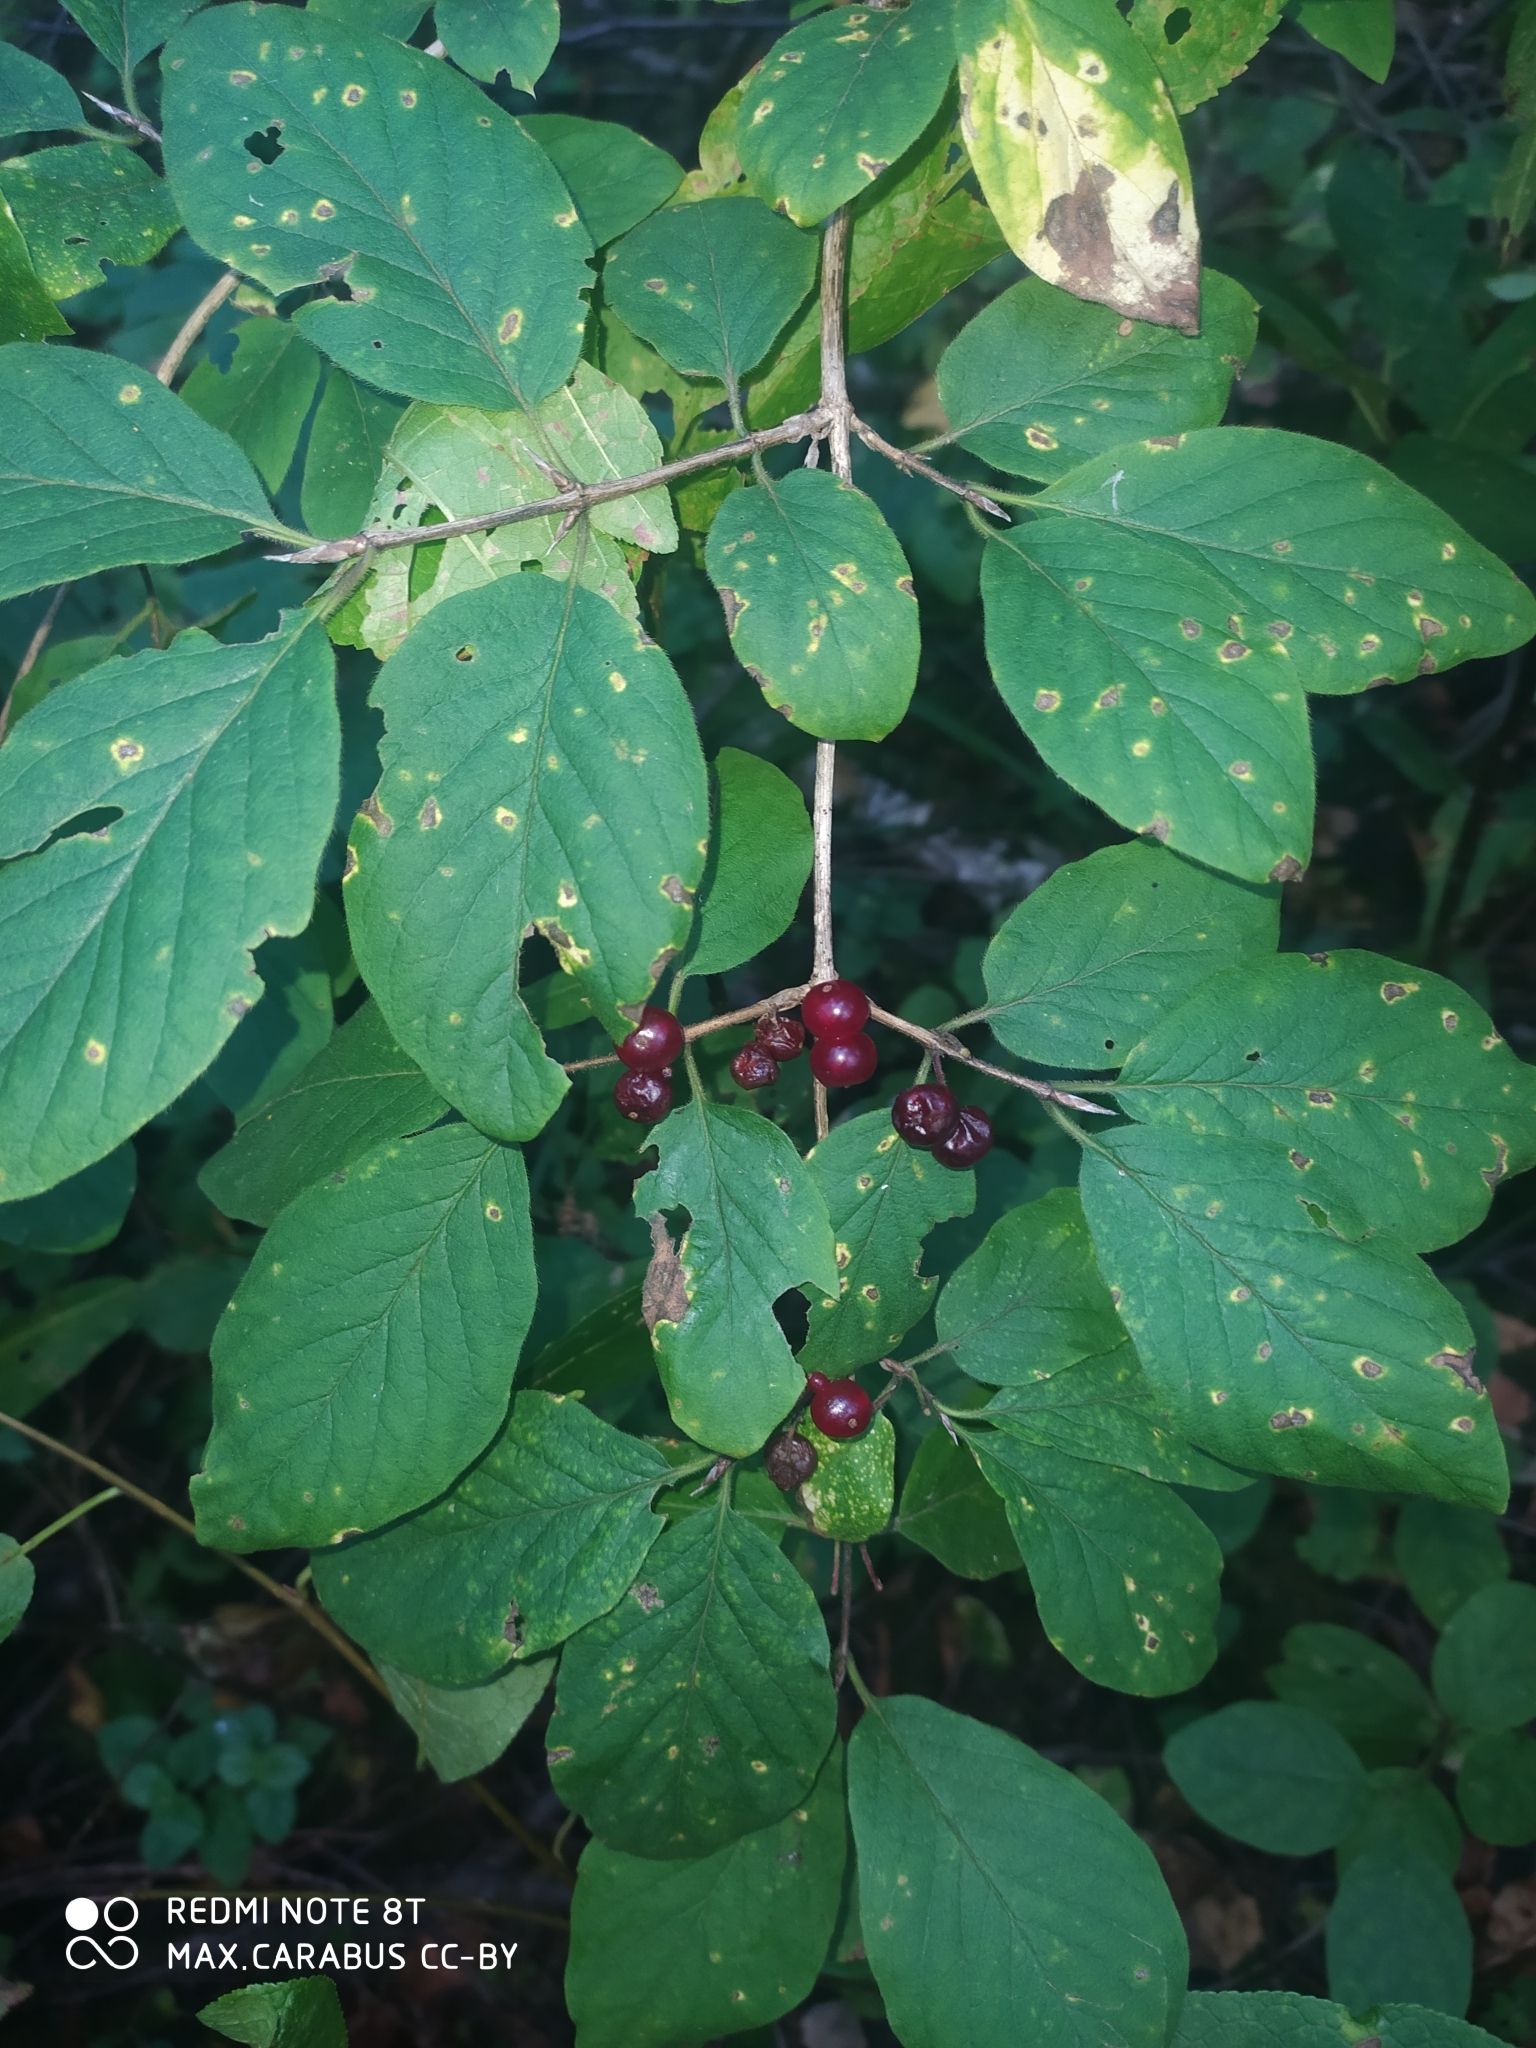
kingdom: Plantae
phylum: Tracheophyta
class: Magnoliopsida
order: Dipsacales
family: Caprifoliaceae
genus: Lonicera
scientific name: Lonicera xylosteum
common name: Fly honeysuckle
